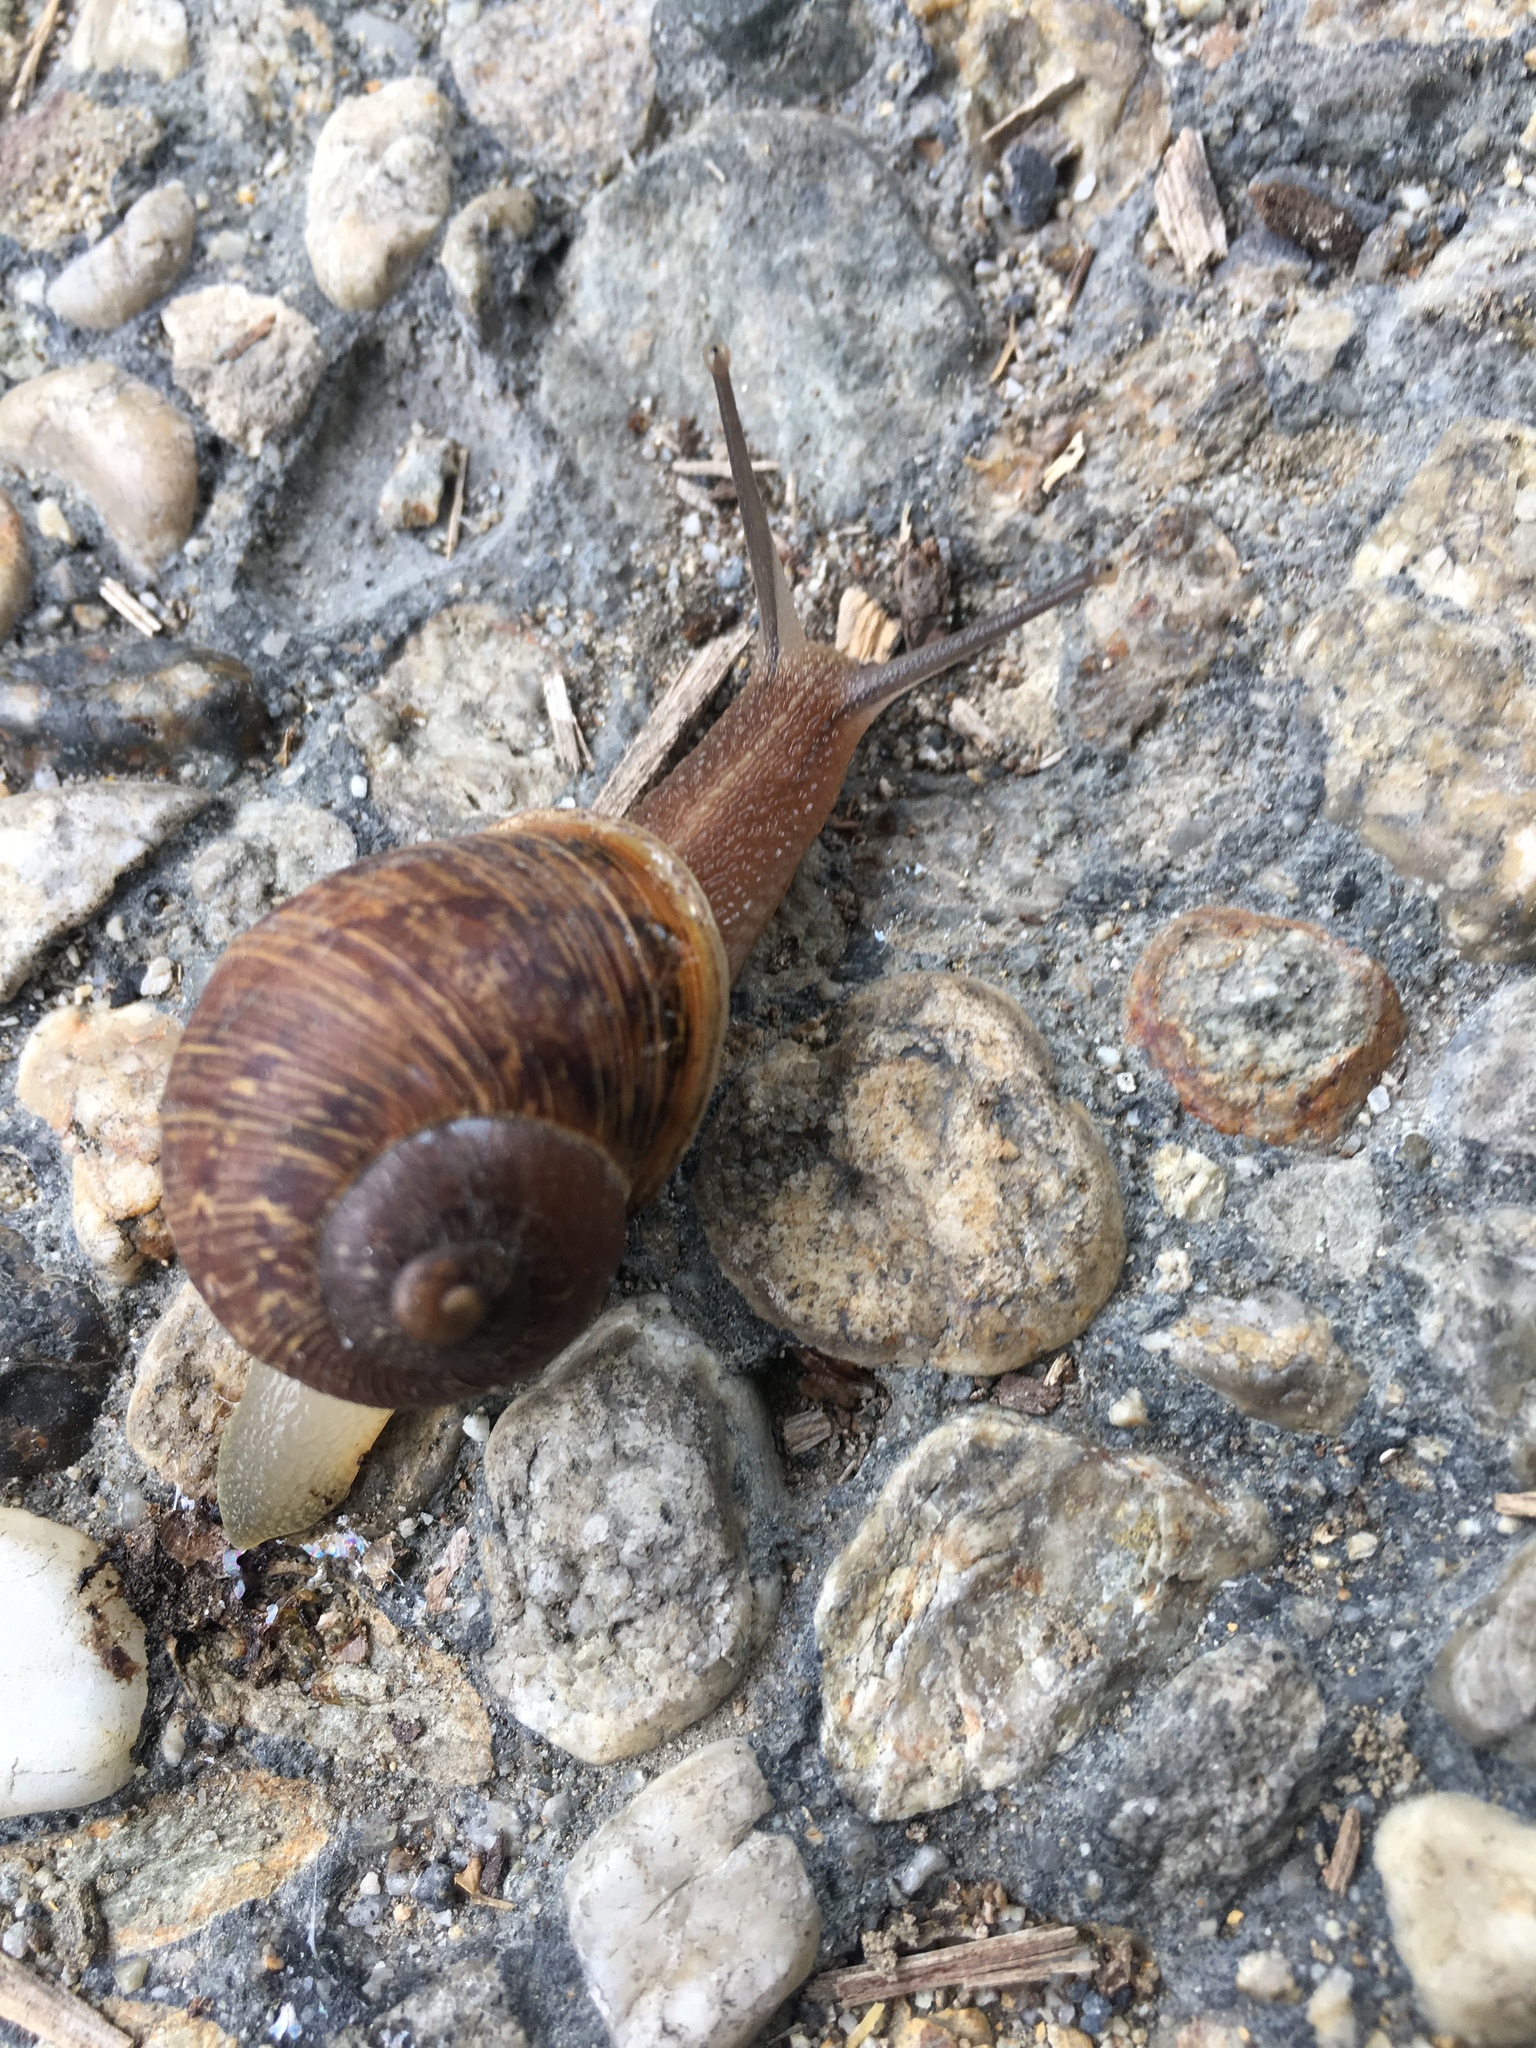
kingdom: Animalia
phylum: Mollusca
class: Gastropoda
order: Stylommatophora
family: Helicidae
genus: Cornu
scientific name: Cornu aspersum
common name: Brown garden snail
